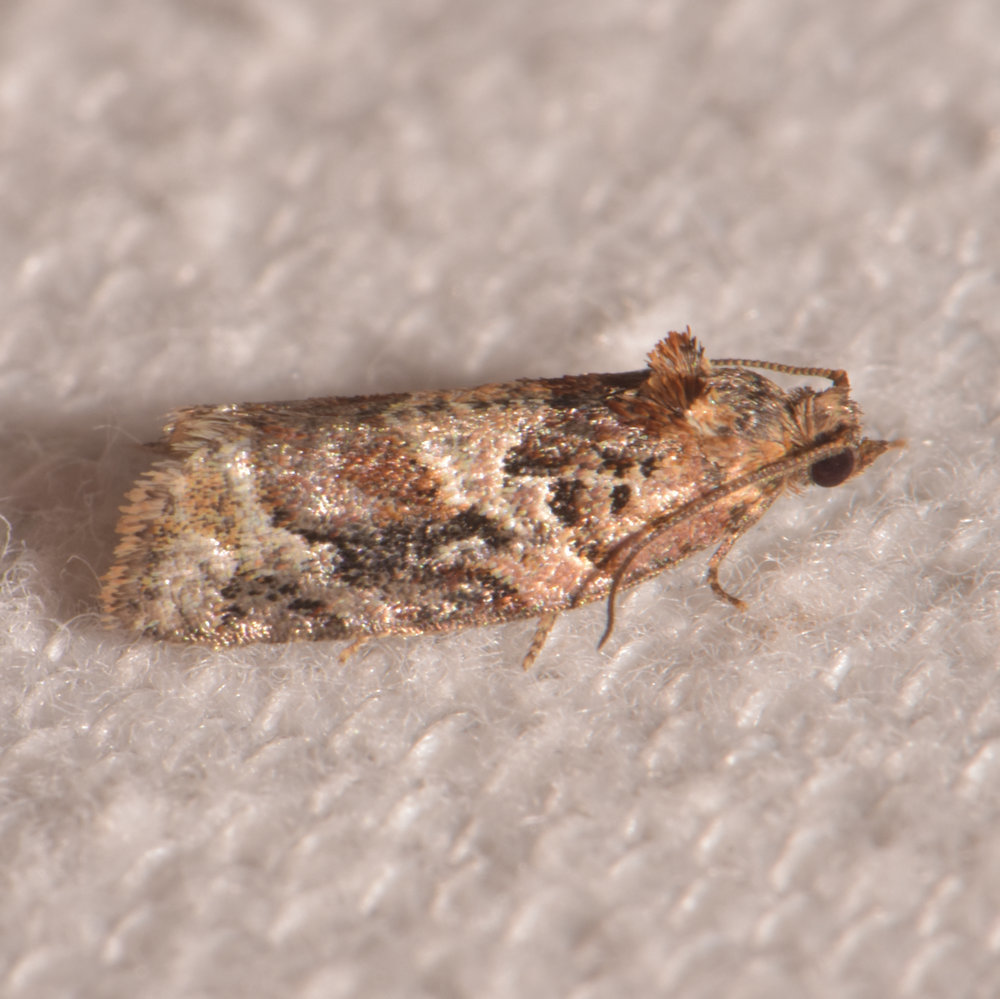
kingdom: Animalia
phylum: Arthropoda
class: Insecta
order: Lepidoptera
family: Tortricidae
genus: Argyrotaenia
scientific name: Argyrotaenia velutinana
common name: Red-banded leafroller moth
